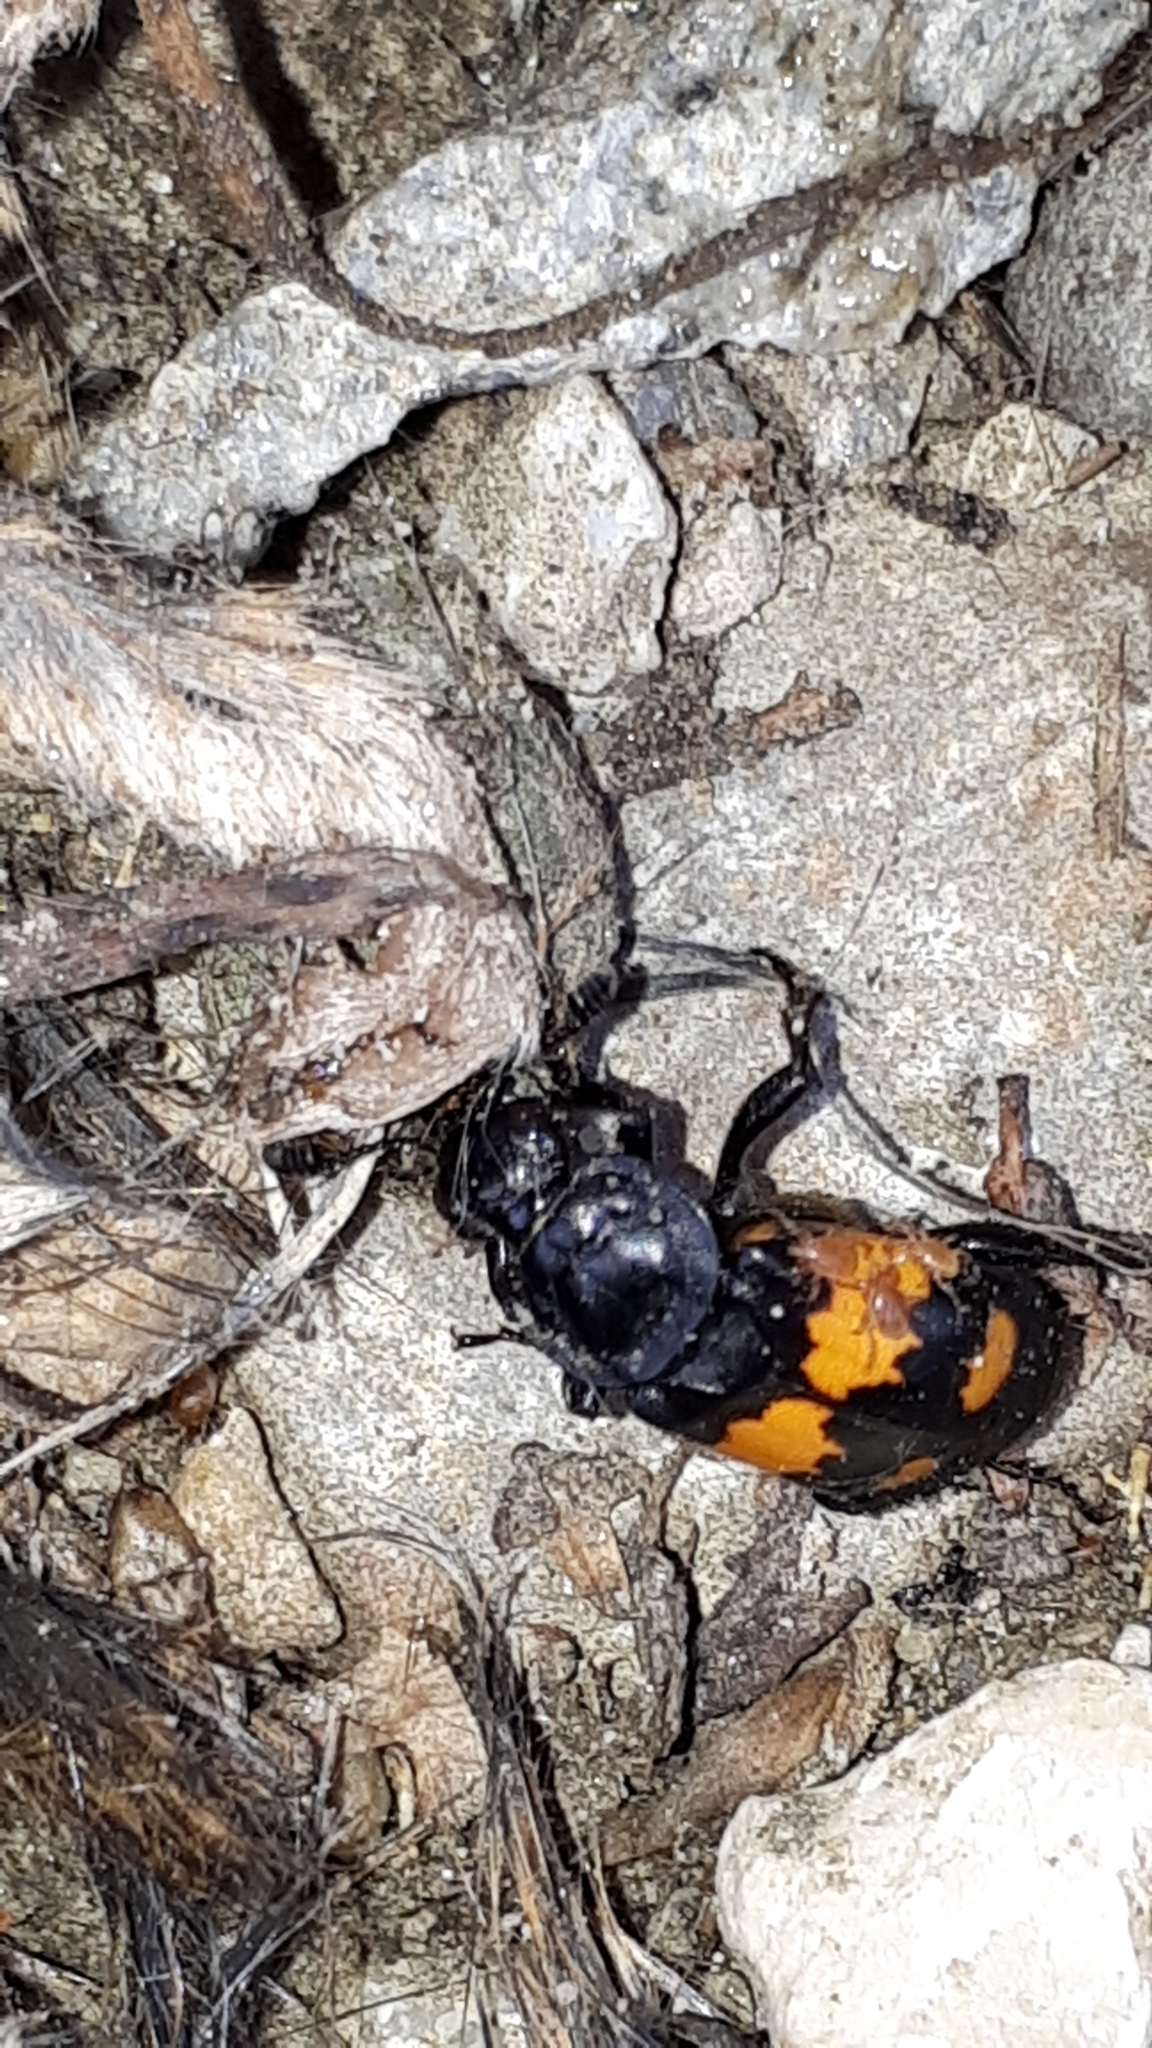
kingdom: Animalia
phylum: Arthropoda
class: Insecta
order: Coleoptera
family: Staphylinidae
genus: Nicrophorus
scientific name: Nicrophorus vespilloides
